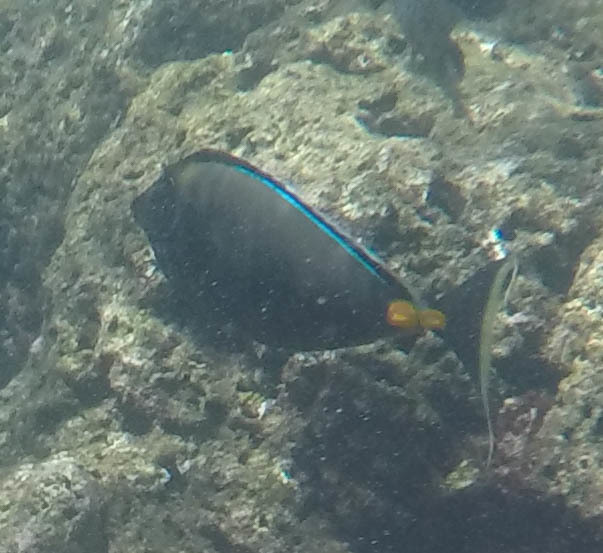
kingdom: Animalia
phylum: Chordata
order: Perciformes
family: Acanthuridae
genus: Naso
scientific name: Naso lituratus
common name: Orangespine unicornfish
